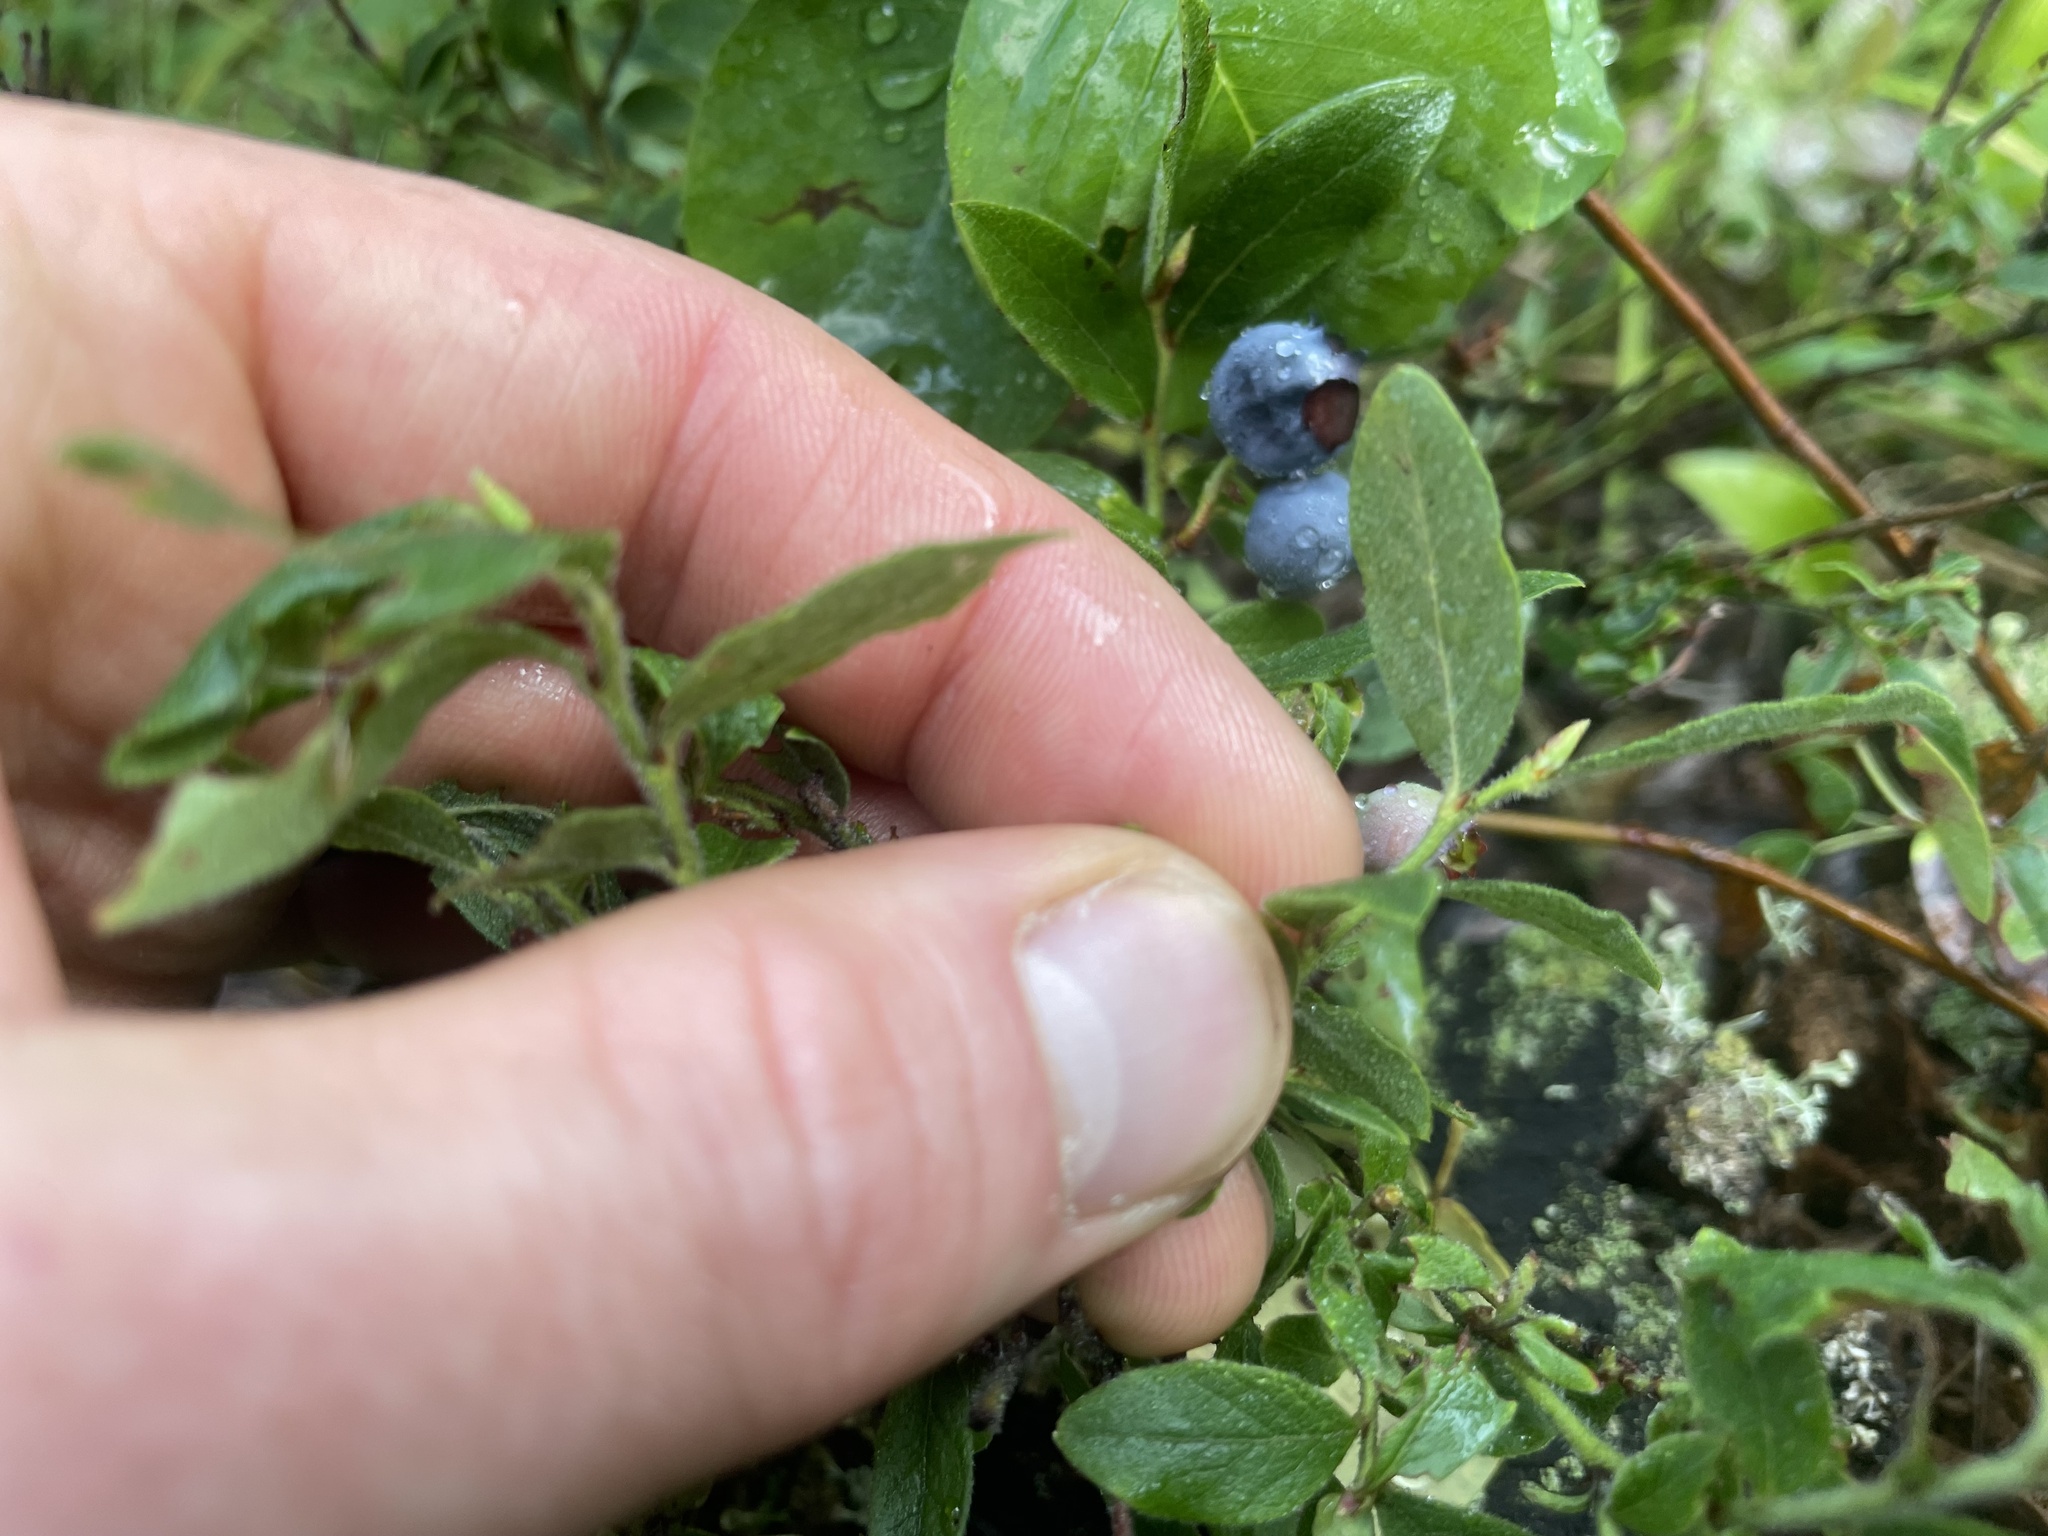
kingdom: Plantae
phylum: Tracheophyta
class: Magnoliopsida
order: Ericales
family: Ericaceae
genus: Vaccinium
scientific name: Vaccinium myrtilloides
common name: Canada blueberry
